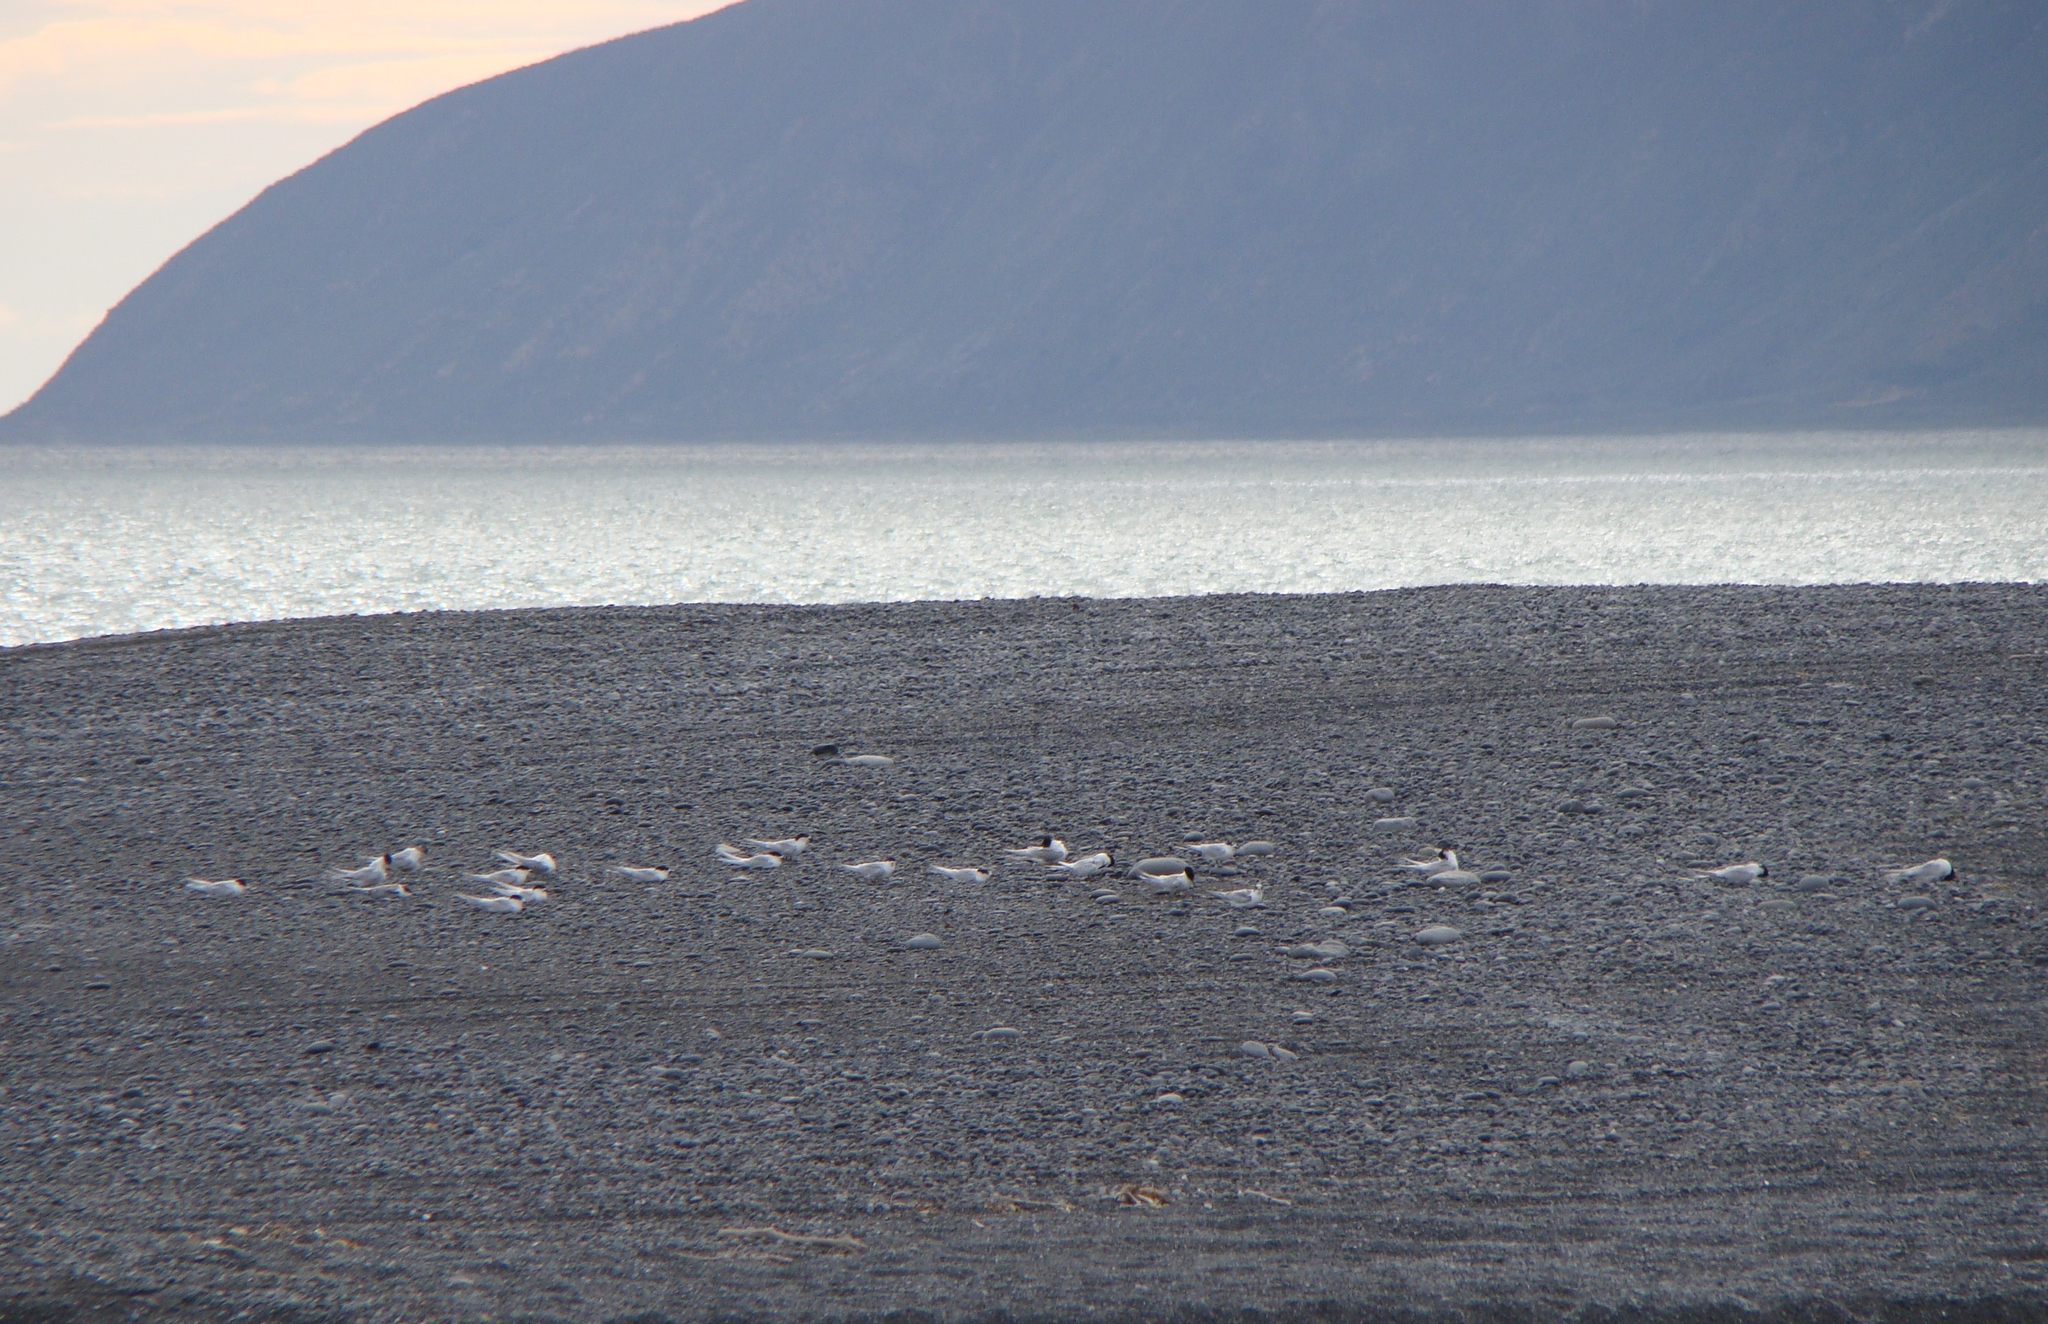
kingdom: Animalia
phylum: Chordata
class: Aves
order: Charadriiformes
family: Laridae
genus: Sterna
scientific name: Sterna striata
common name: White-fronted tern
